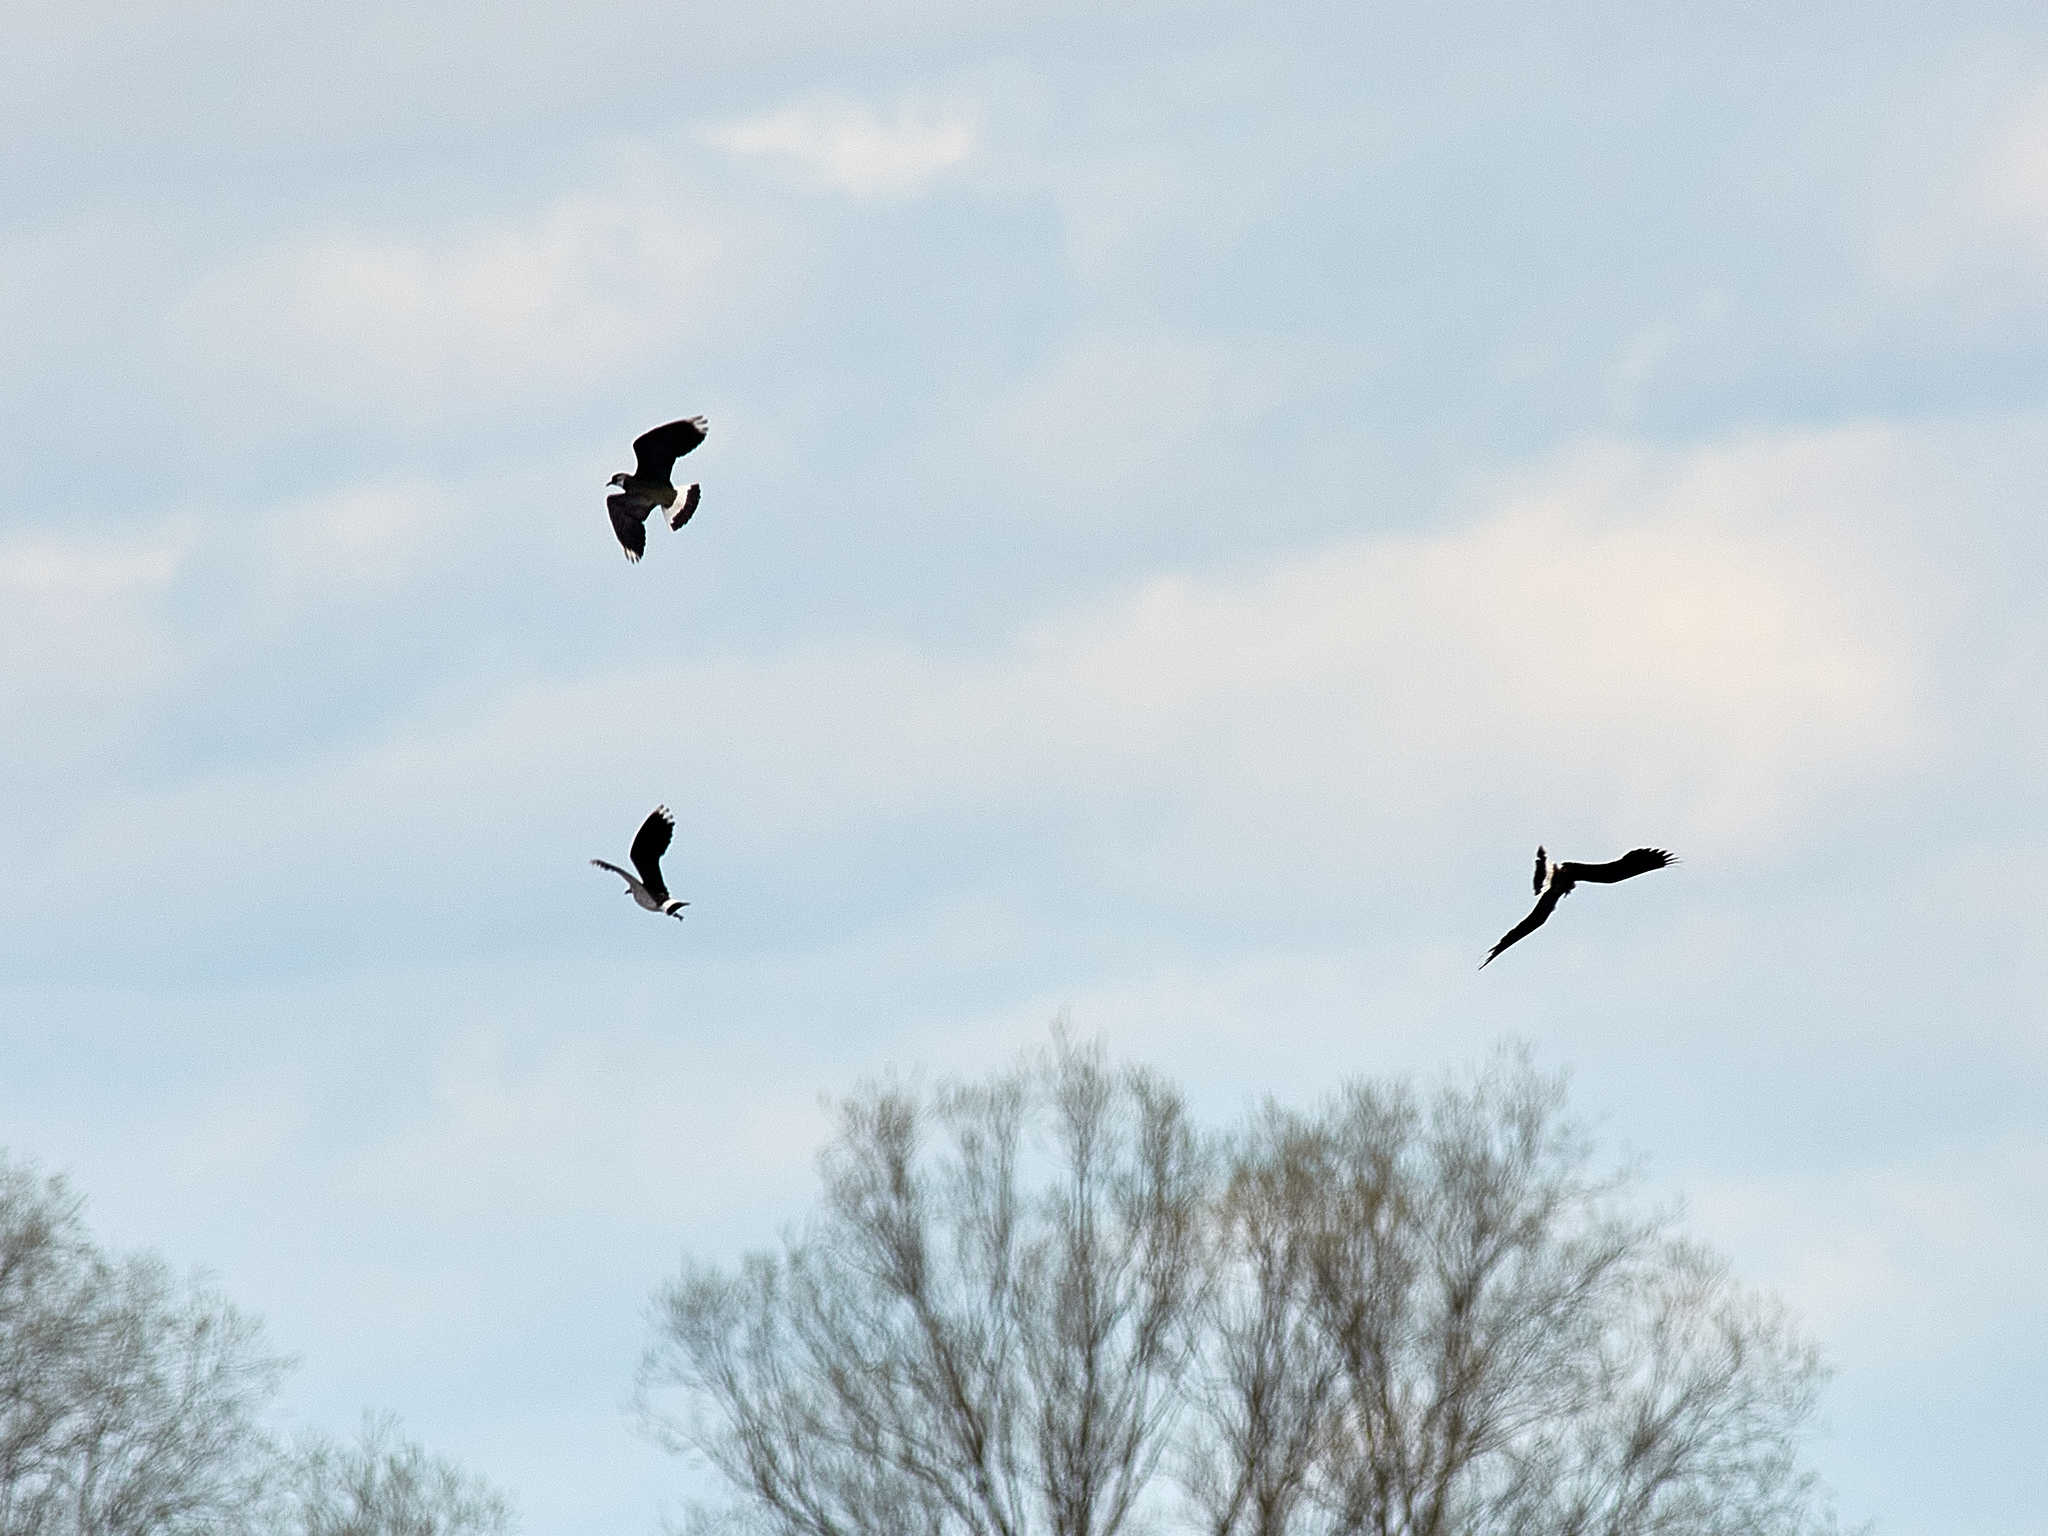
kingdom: Animalia
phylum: Chordata
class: Aves
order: Charadriiformes
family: Charadriidae
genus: Vanellus
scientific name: Vanellus vanellus
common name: Northern lapwing
